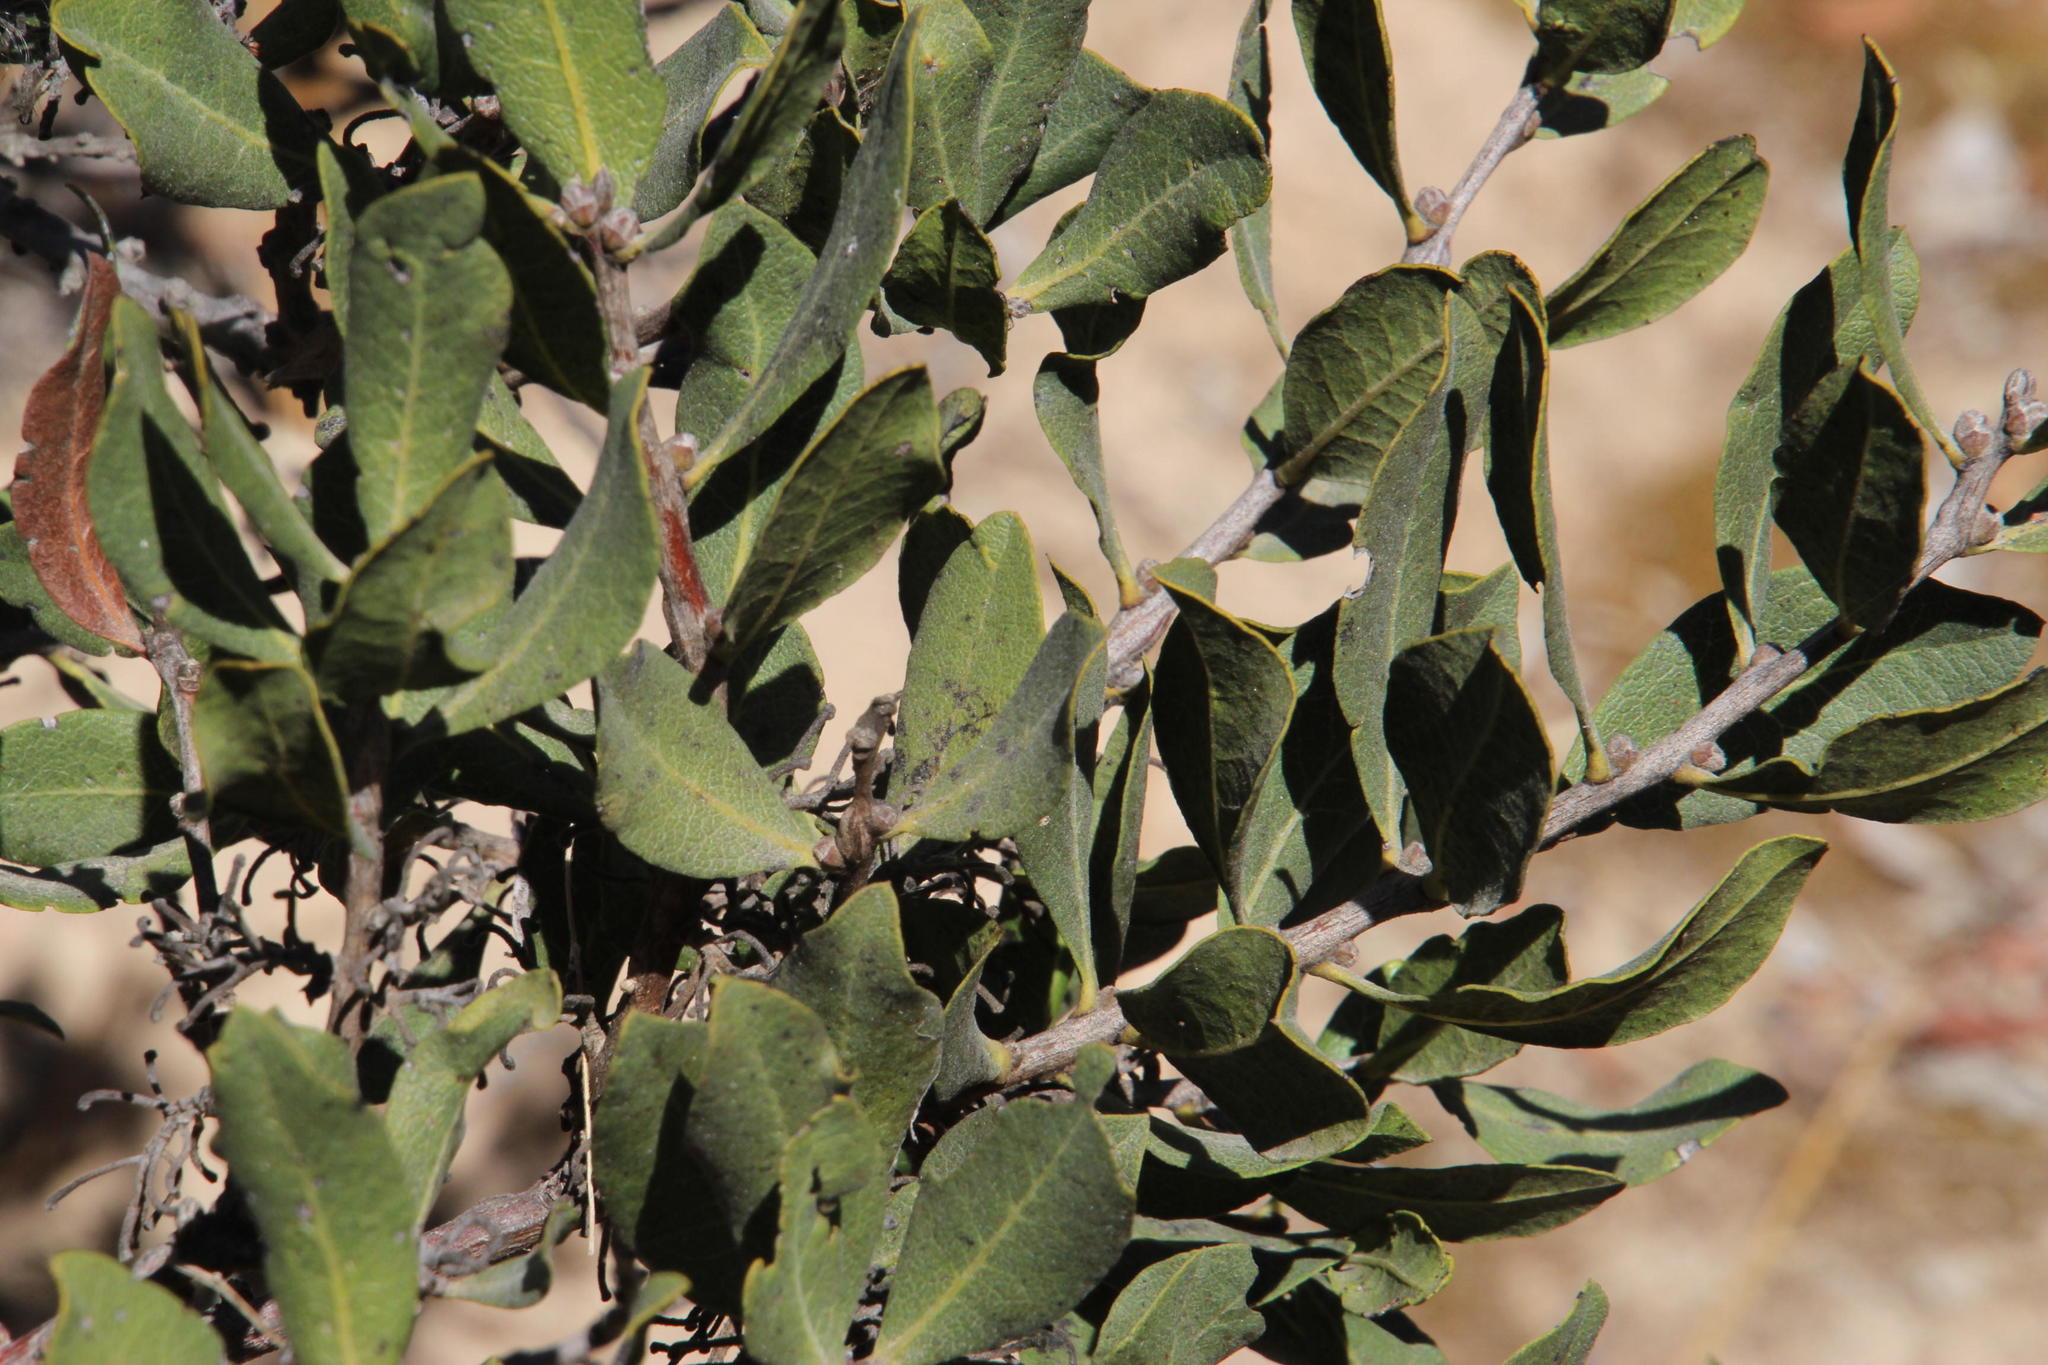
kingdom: Plantae
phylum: Tracheophyta
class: Magnoliopsida
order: Ericales
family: Ebenaceae
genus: Euclea
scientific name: Euclea tomentosa
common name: Honey guarri
